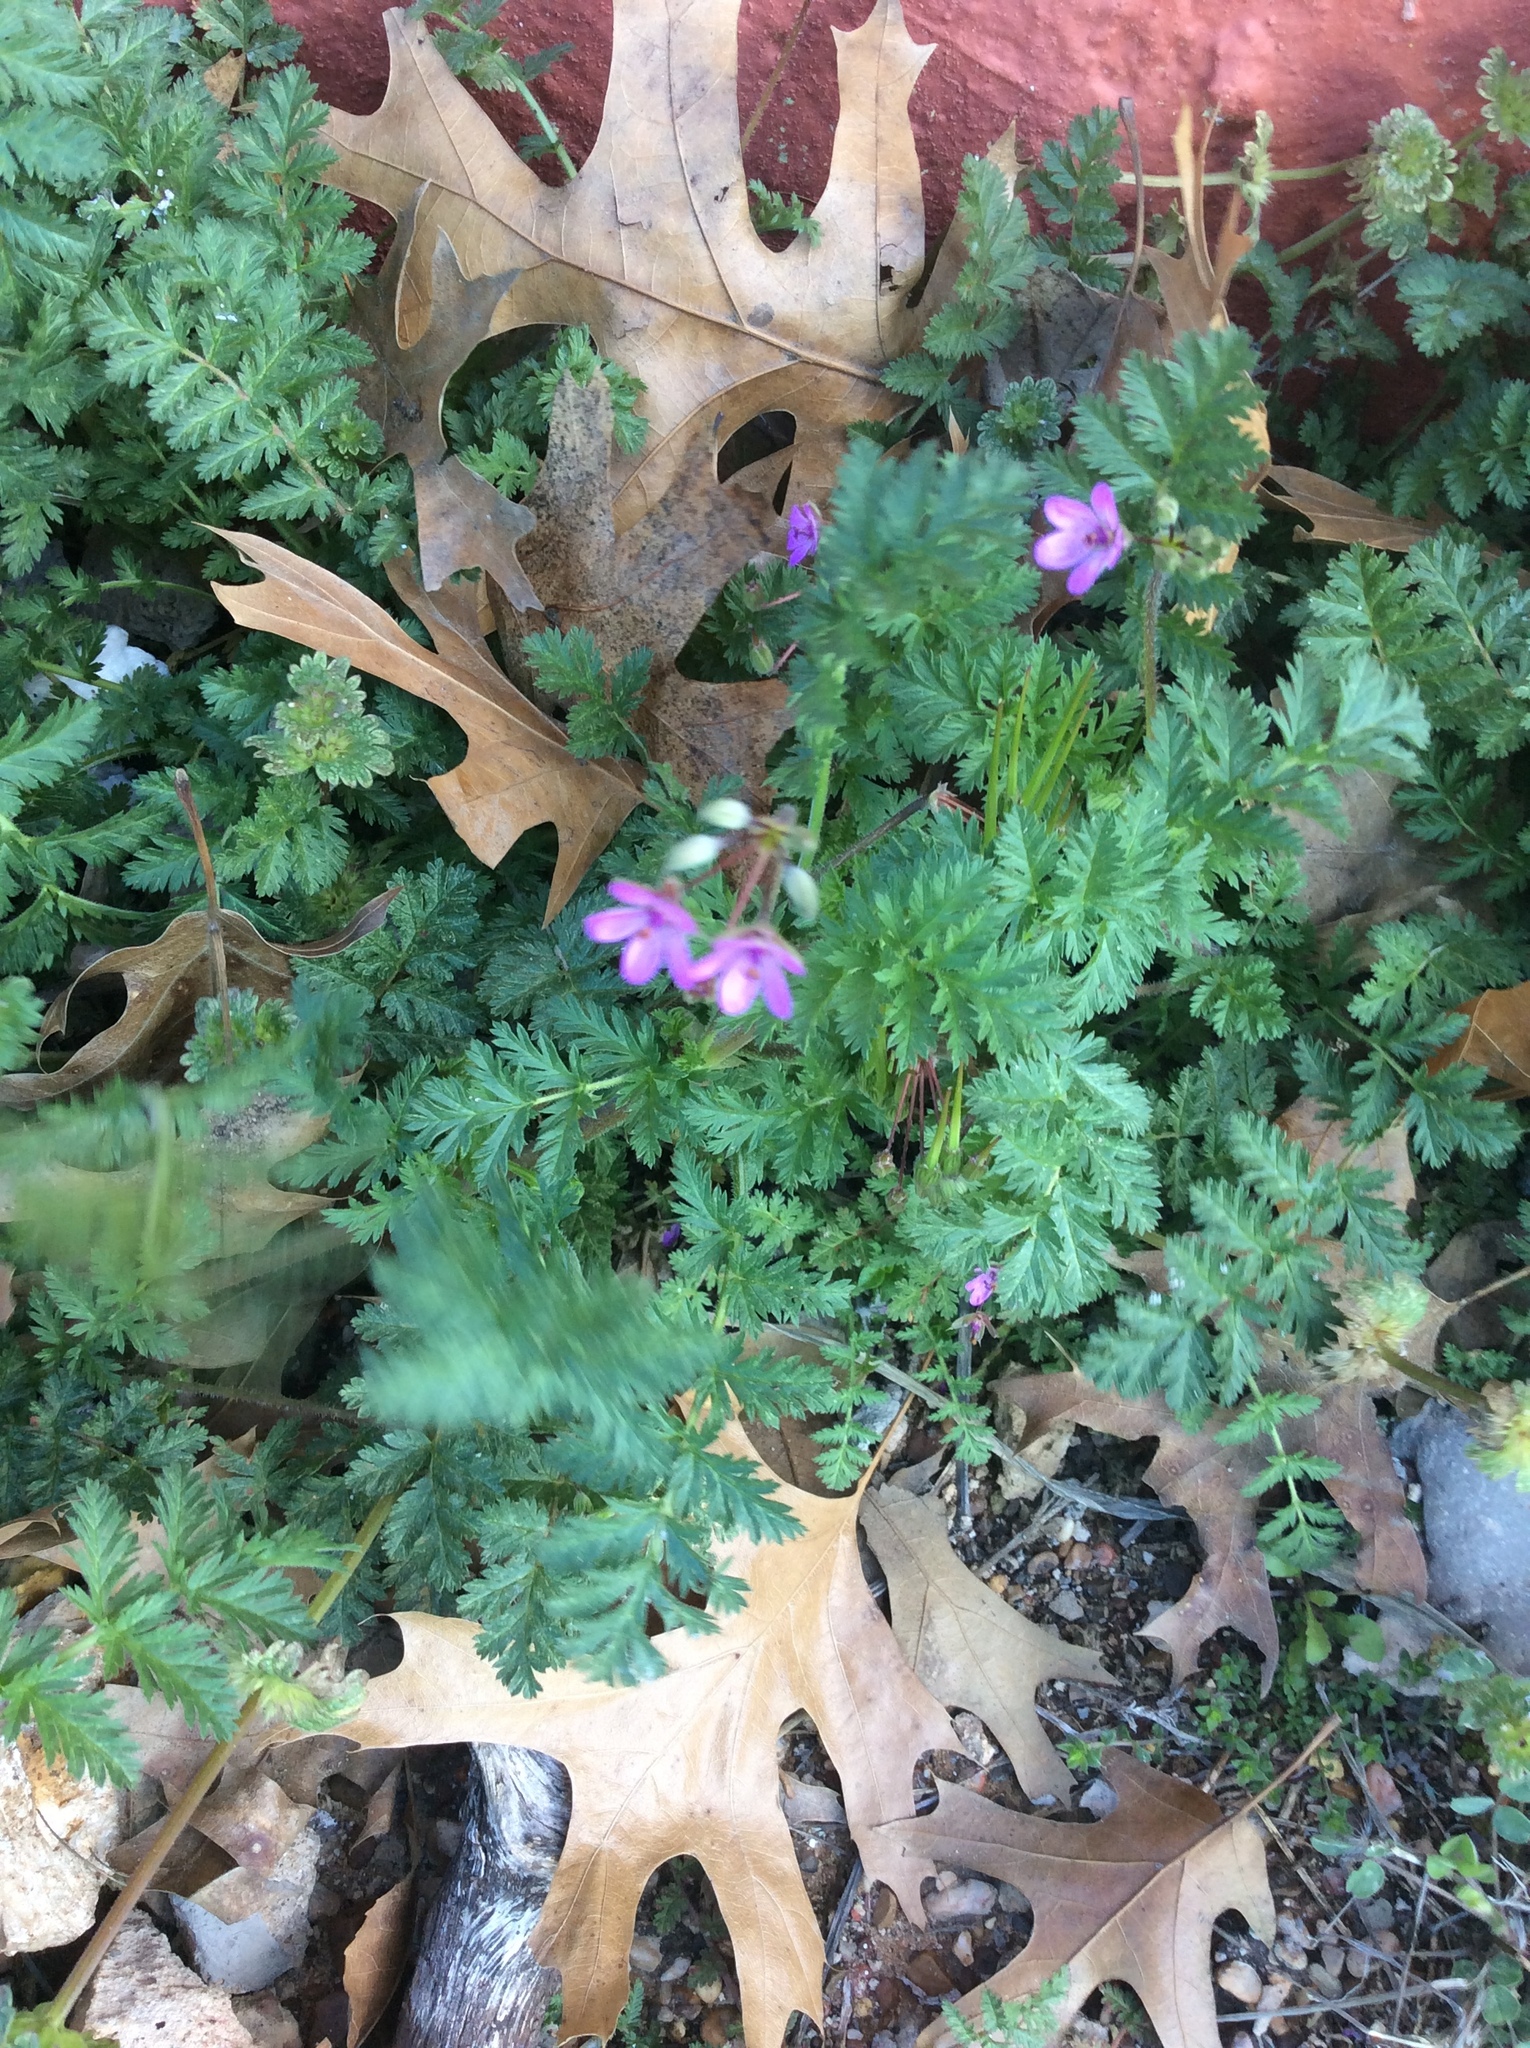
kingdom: Plantae
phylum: Tracheophyta
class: Magnoliopsida
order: Geraniales
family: Geraniaceae
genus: Erodium
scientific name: Erodium cicutarium
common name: Common stork's-bill
